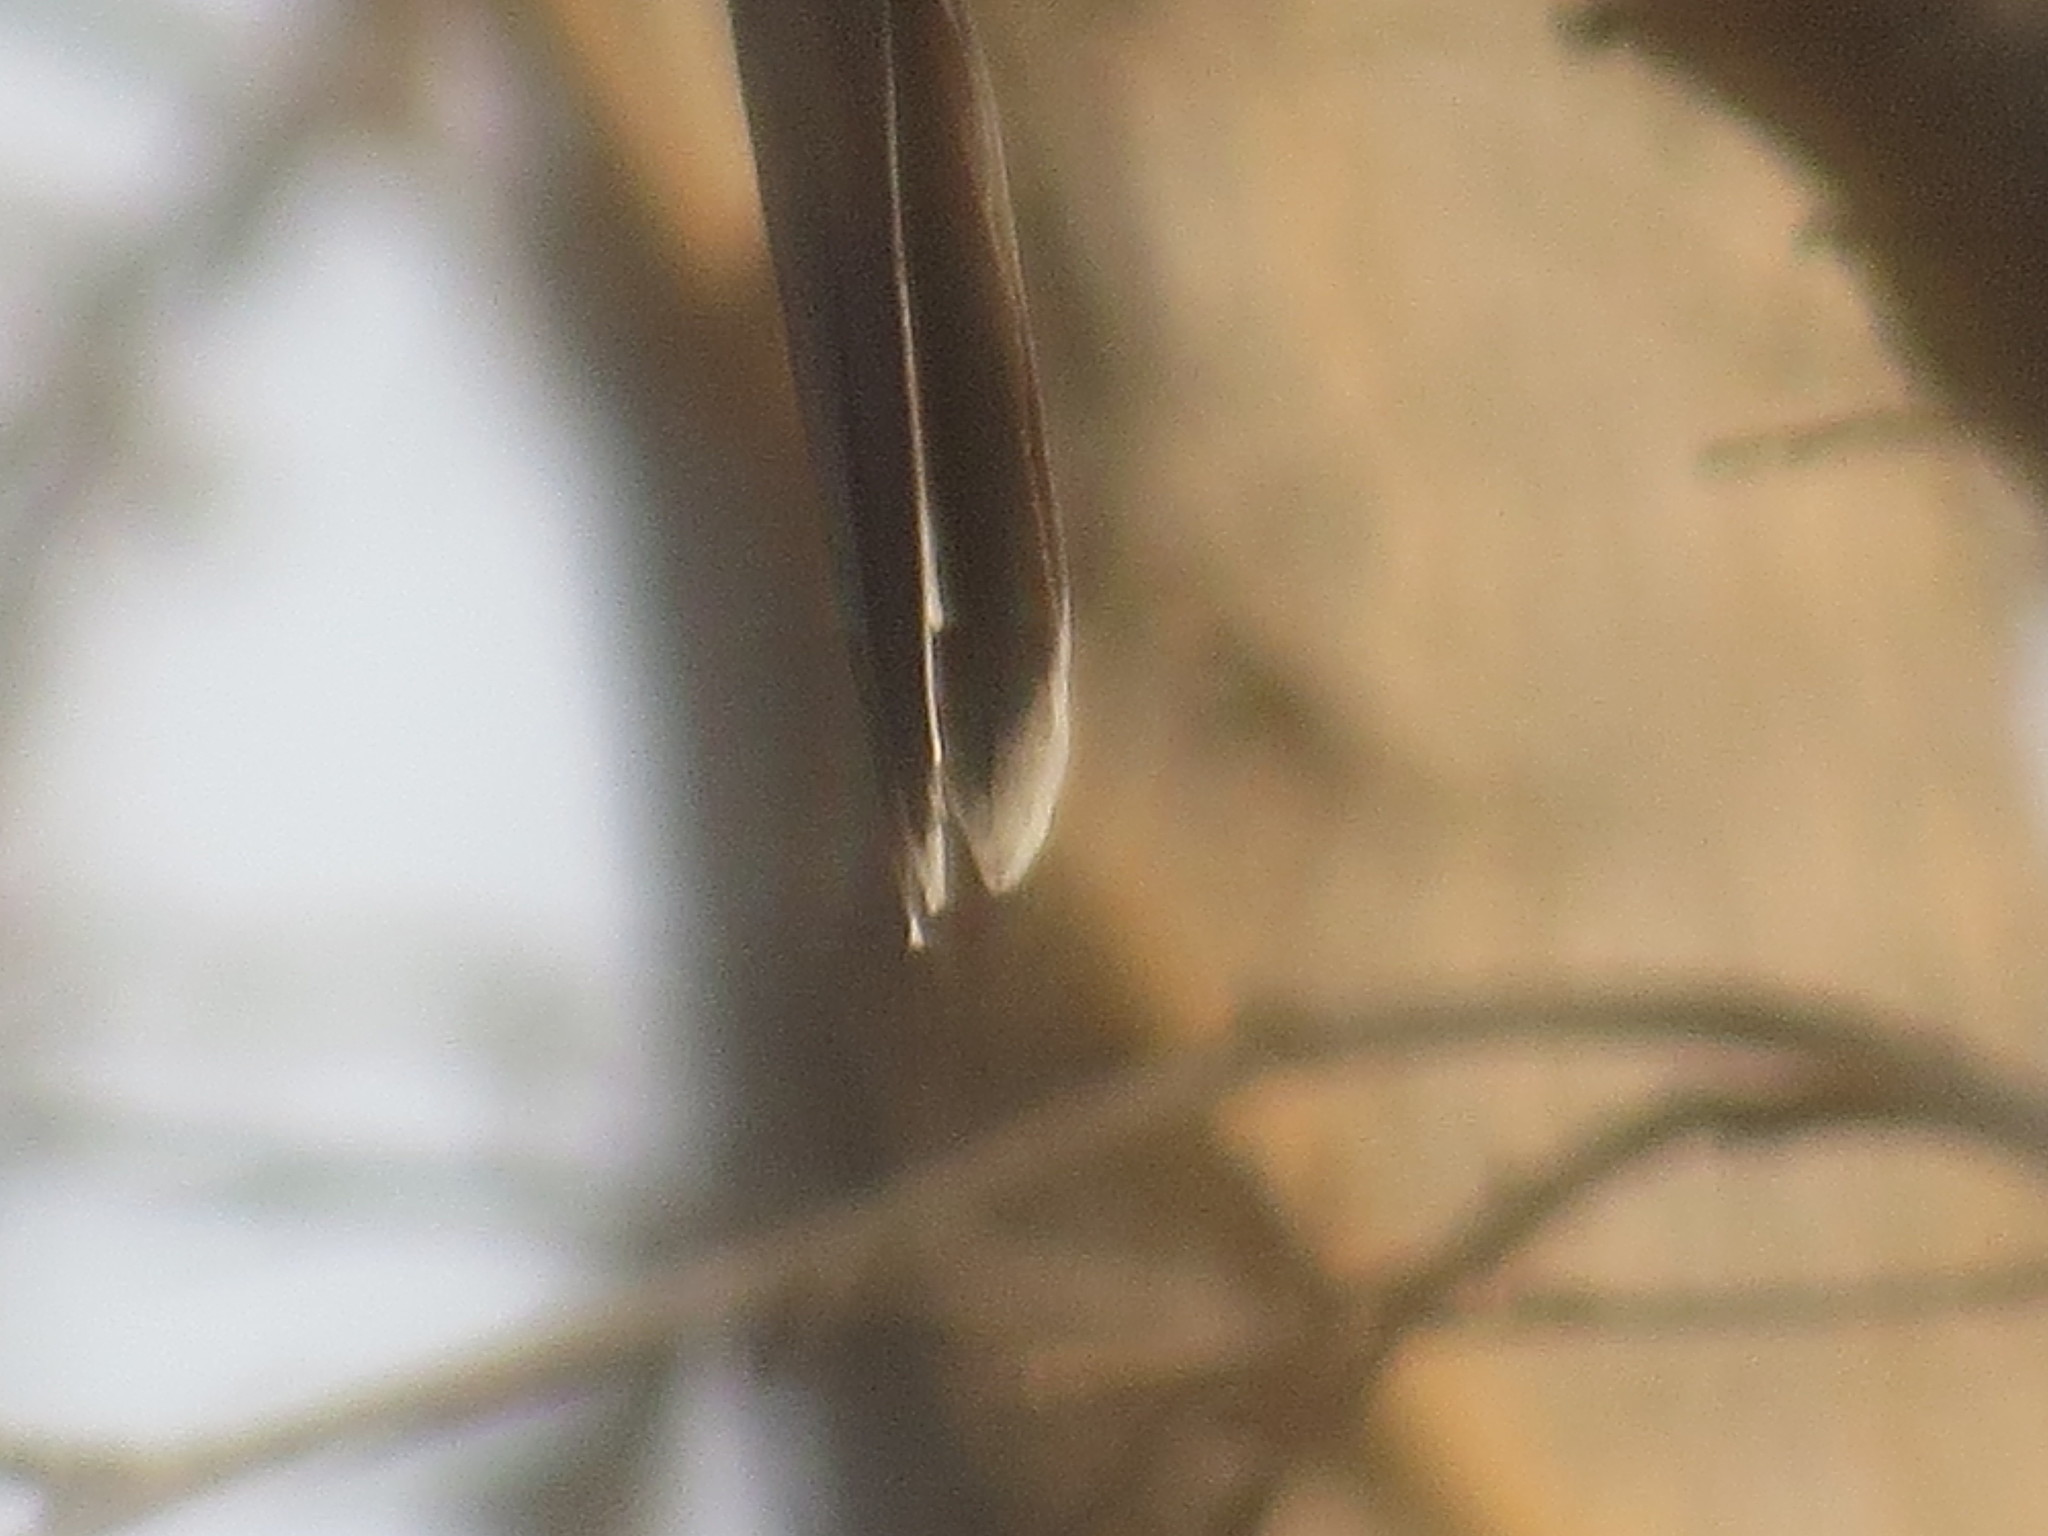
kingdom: Animalia
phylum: Chordata
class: Aves
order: Accipitriformes
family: Accipitridae
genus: Accipiter
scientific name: Accipiter cooperii
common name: Cooper's hawk
